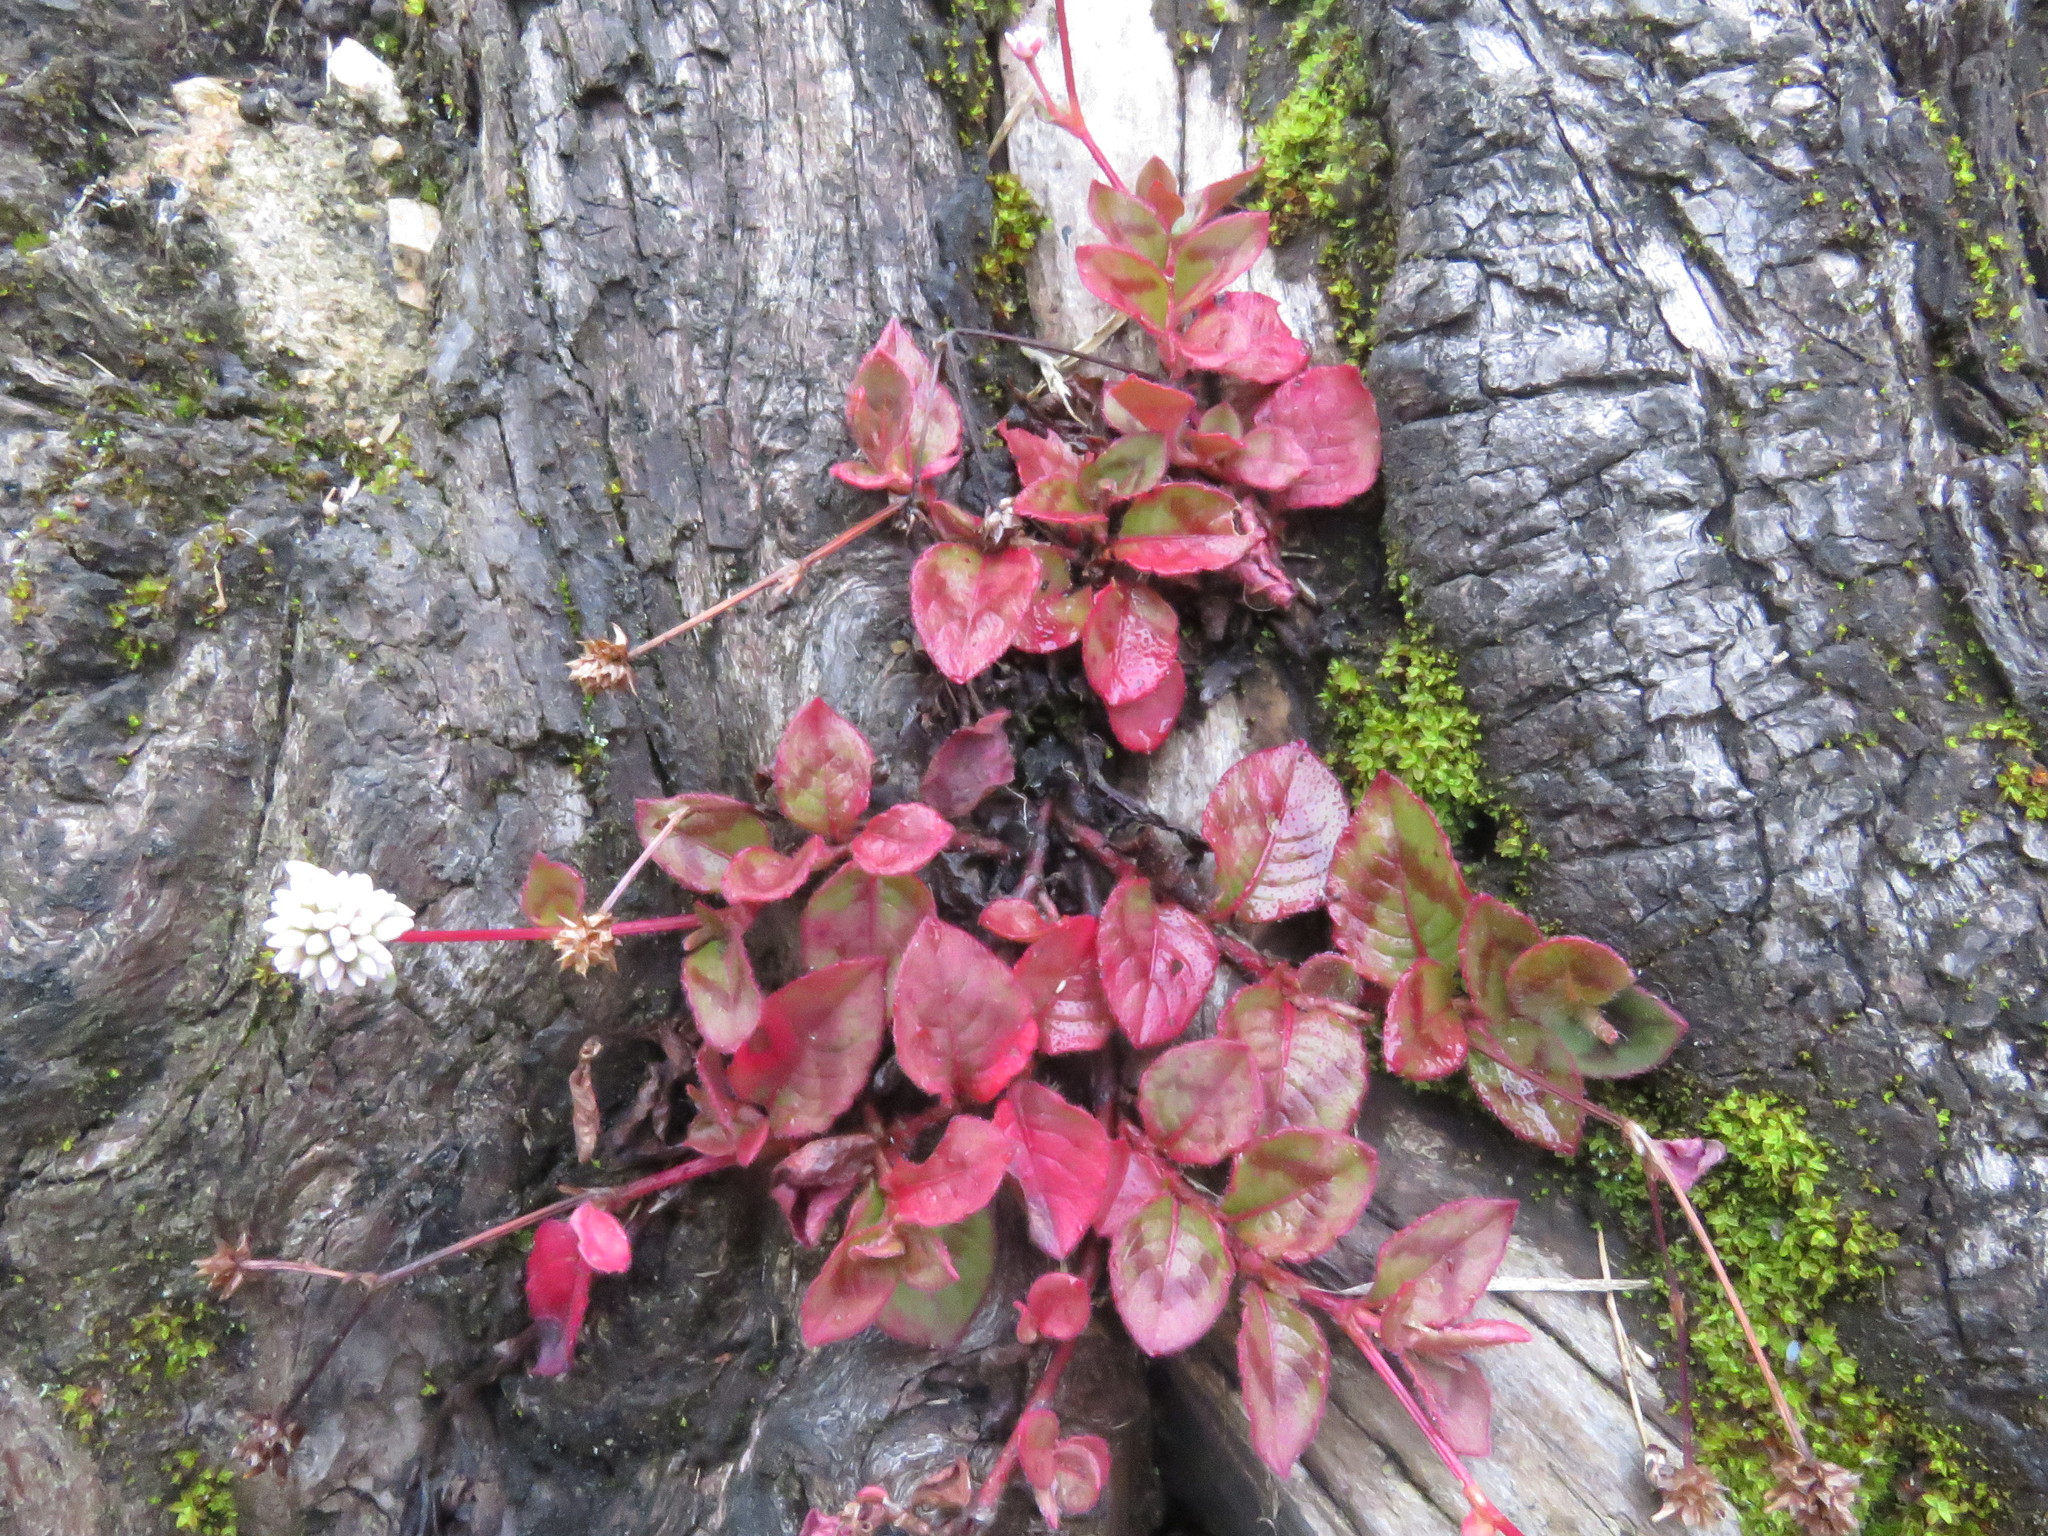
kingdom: Plantae
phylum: Tracheophyta
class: Magnoliopsida
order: Caryophyllales
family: Polygonaceae
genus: Persicaria
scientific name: Persicaria capitata
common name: Pinkhead smartweed
